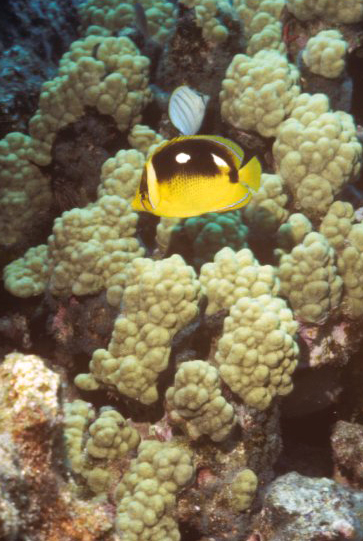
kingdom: Animalia
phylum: Chordata
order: Perciformes
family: Chaetodontidae
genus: Chaetodon
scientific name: Chaetodon quadrimaculatus
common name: Fourspot butterflyfish
